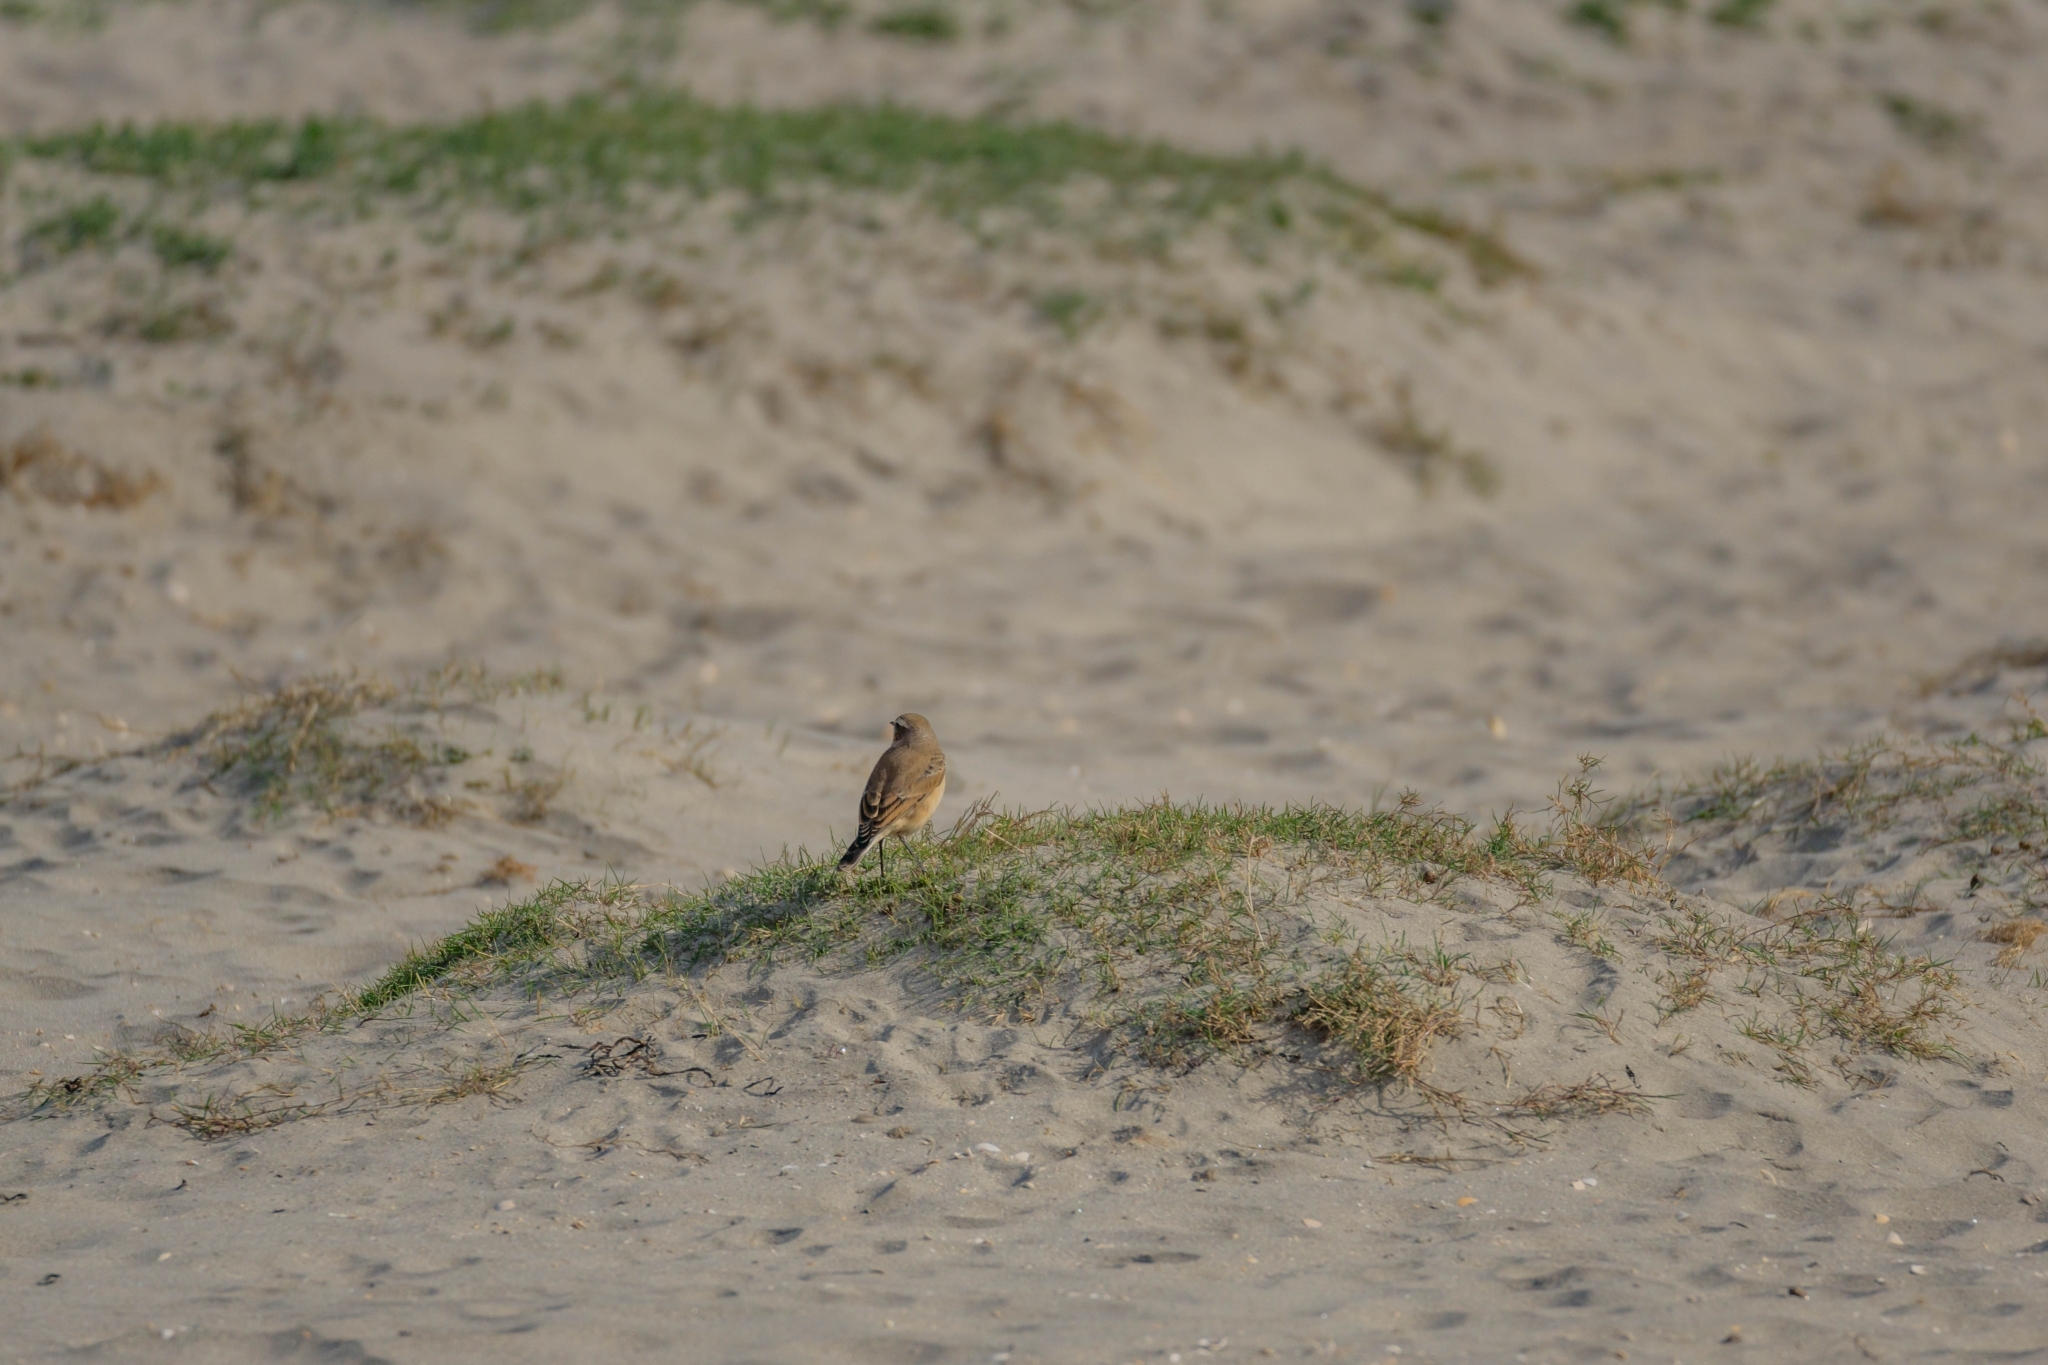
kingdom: Animalia
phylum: Chordata
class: Aves
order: Passeriformes
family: Muscicapidae
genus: Oenanthe
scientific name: Oenanthe oenanthe
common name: Northern wheatear
